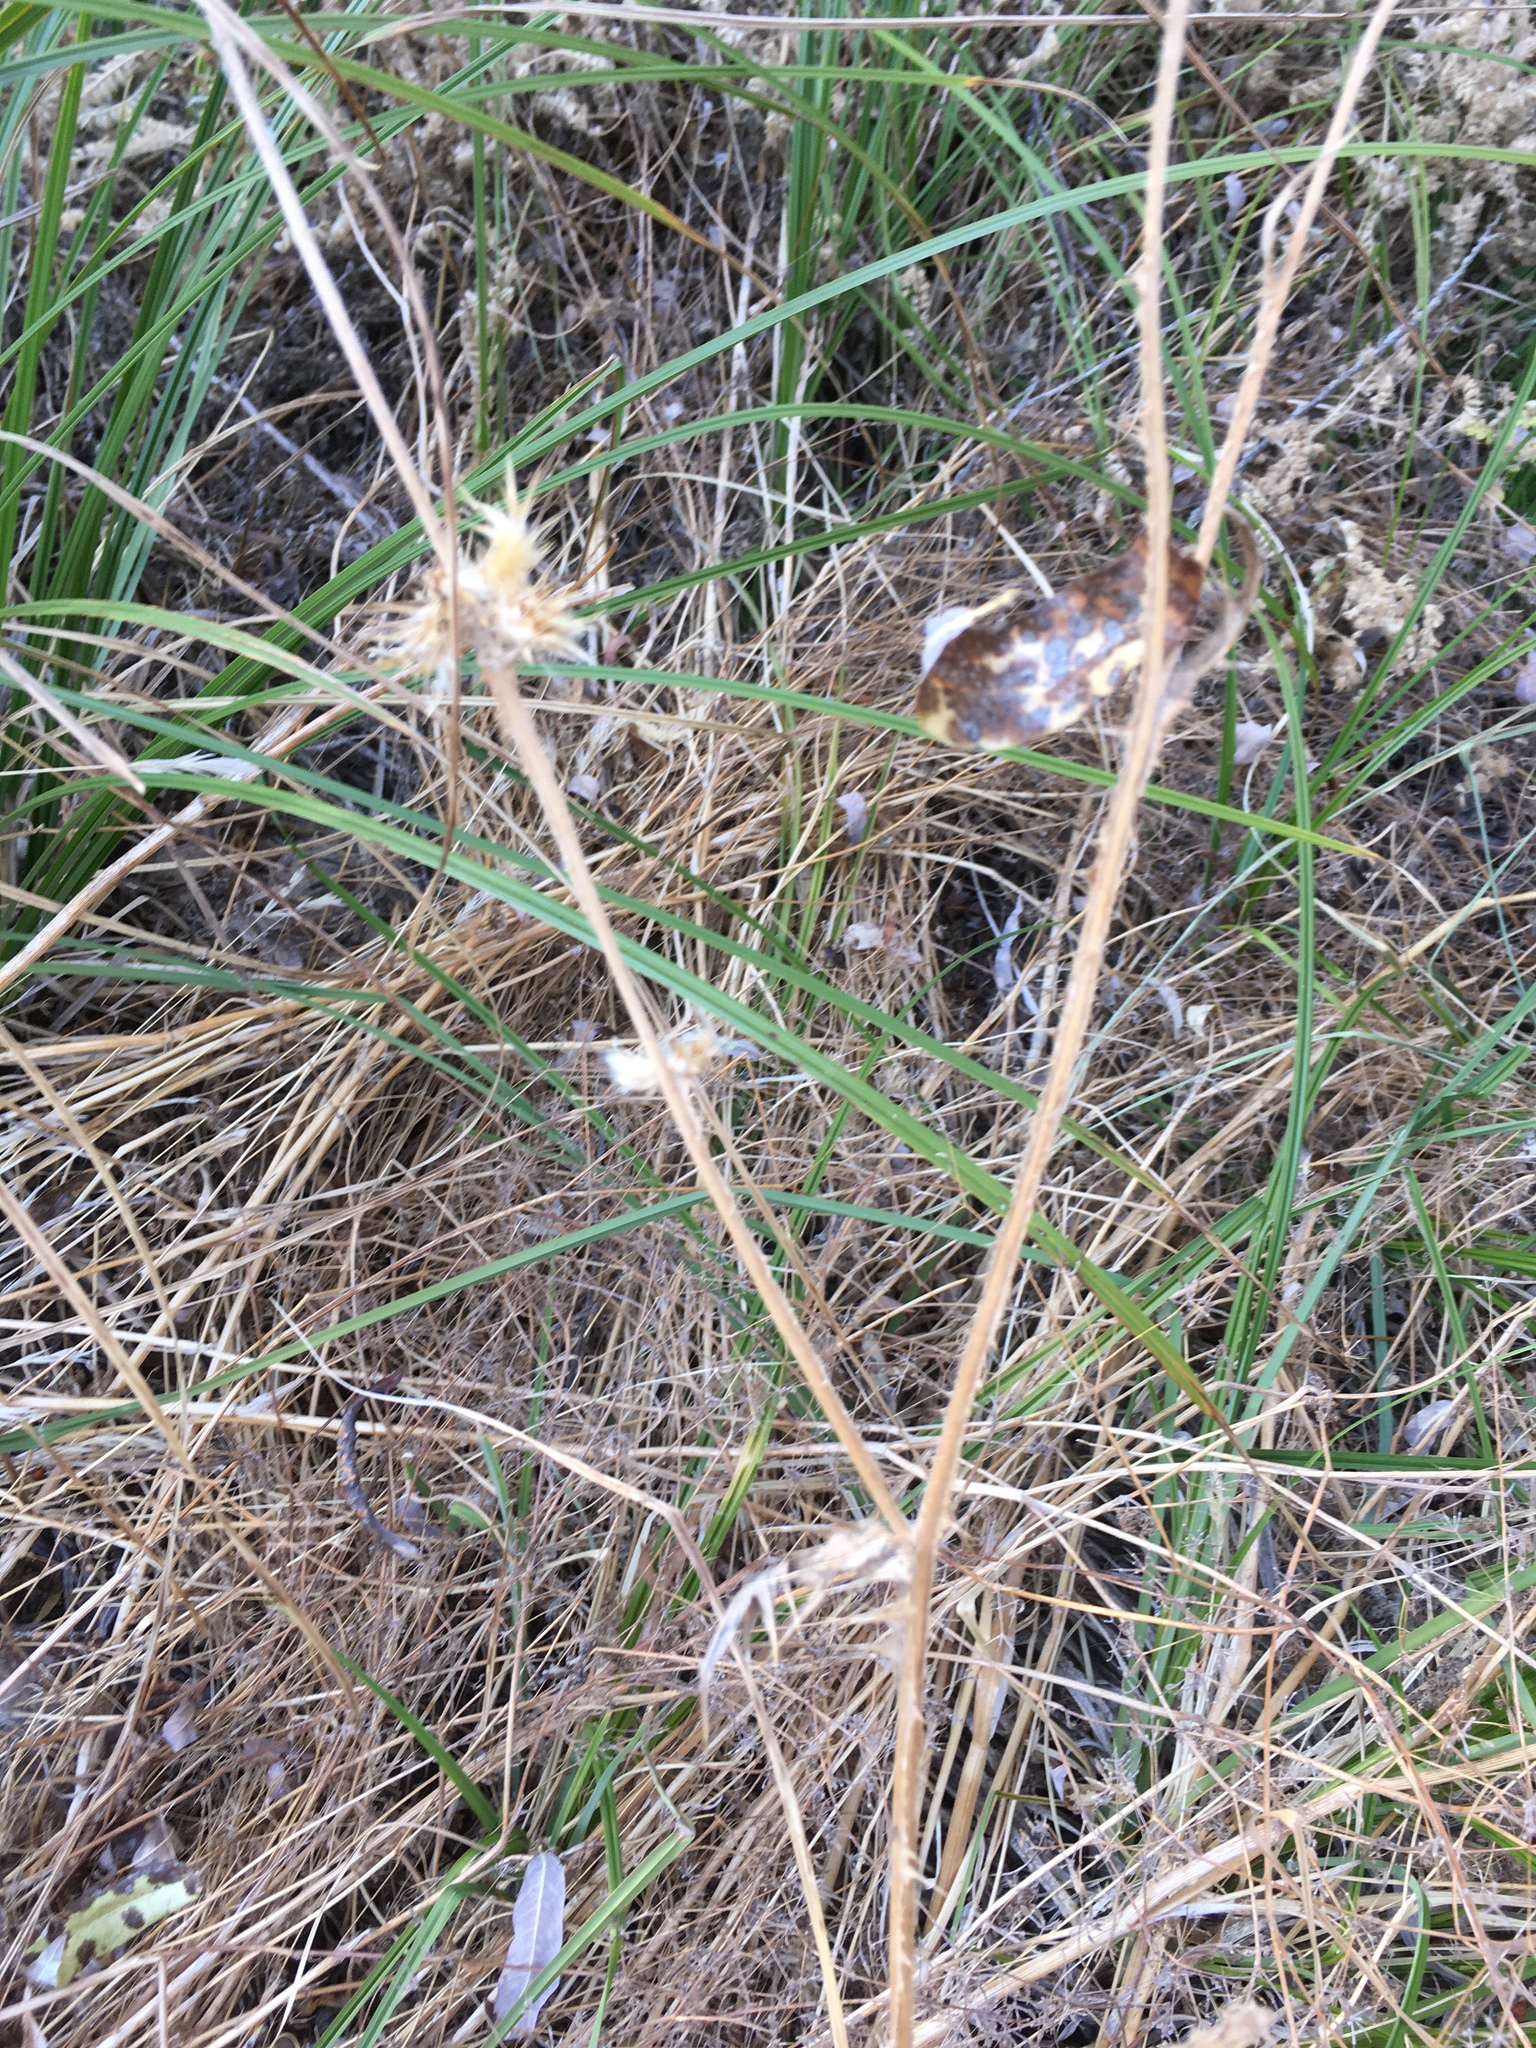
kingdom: Plantae
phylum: Tracheophyta
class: Magnoliopsida
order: Asterales
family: Asteraceae
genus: Carduus
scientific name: Carduus pycnocephalus
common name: Plymouth thistle
